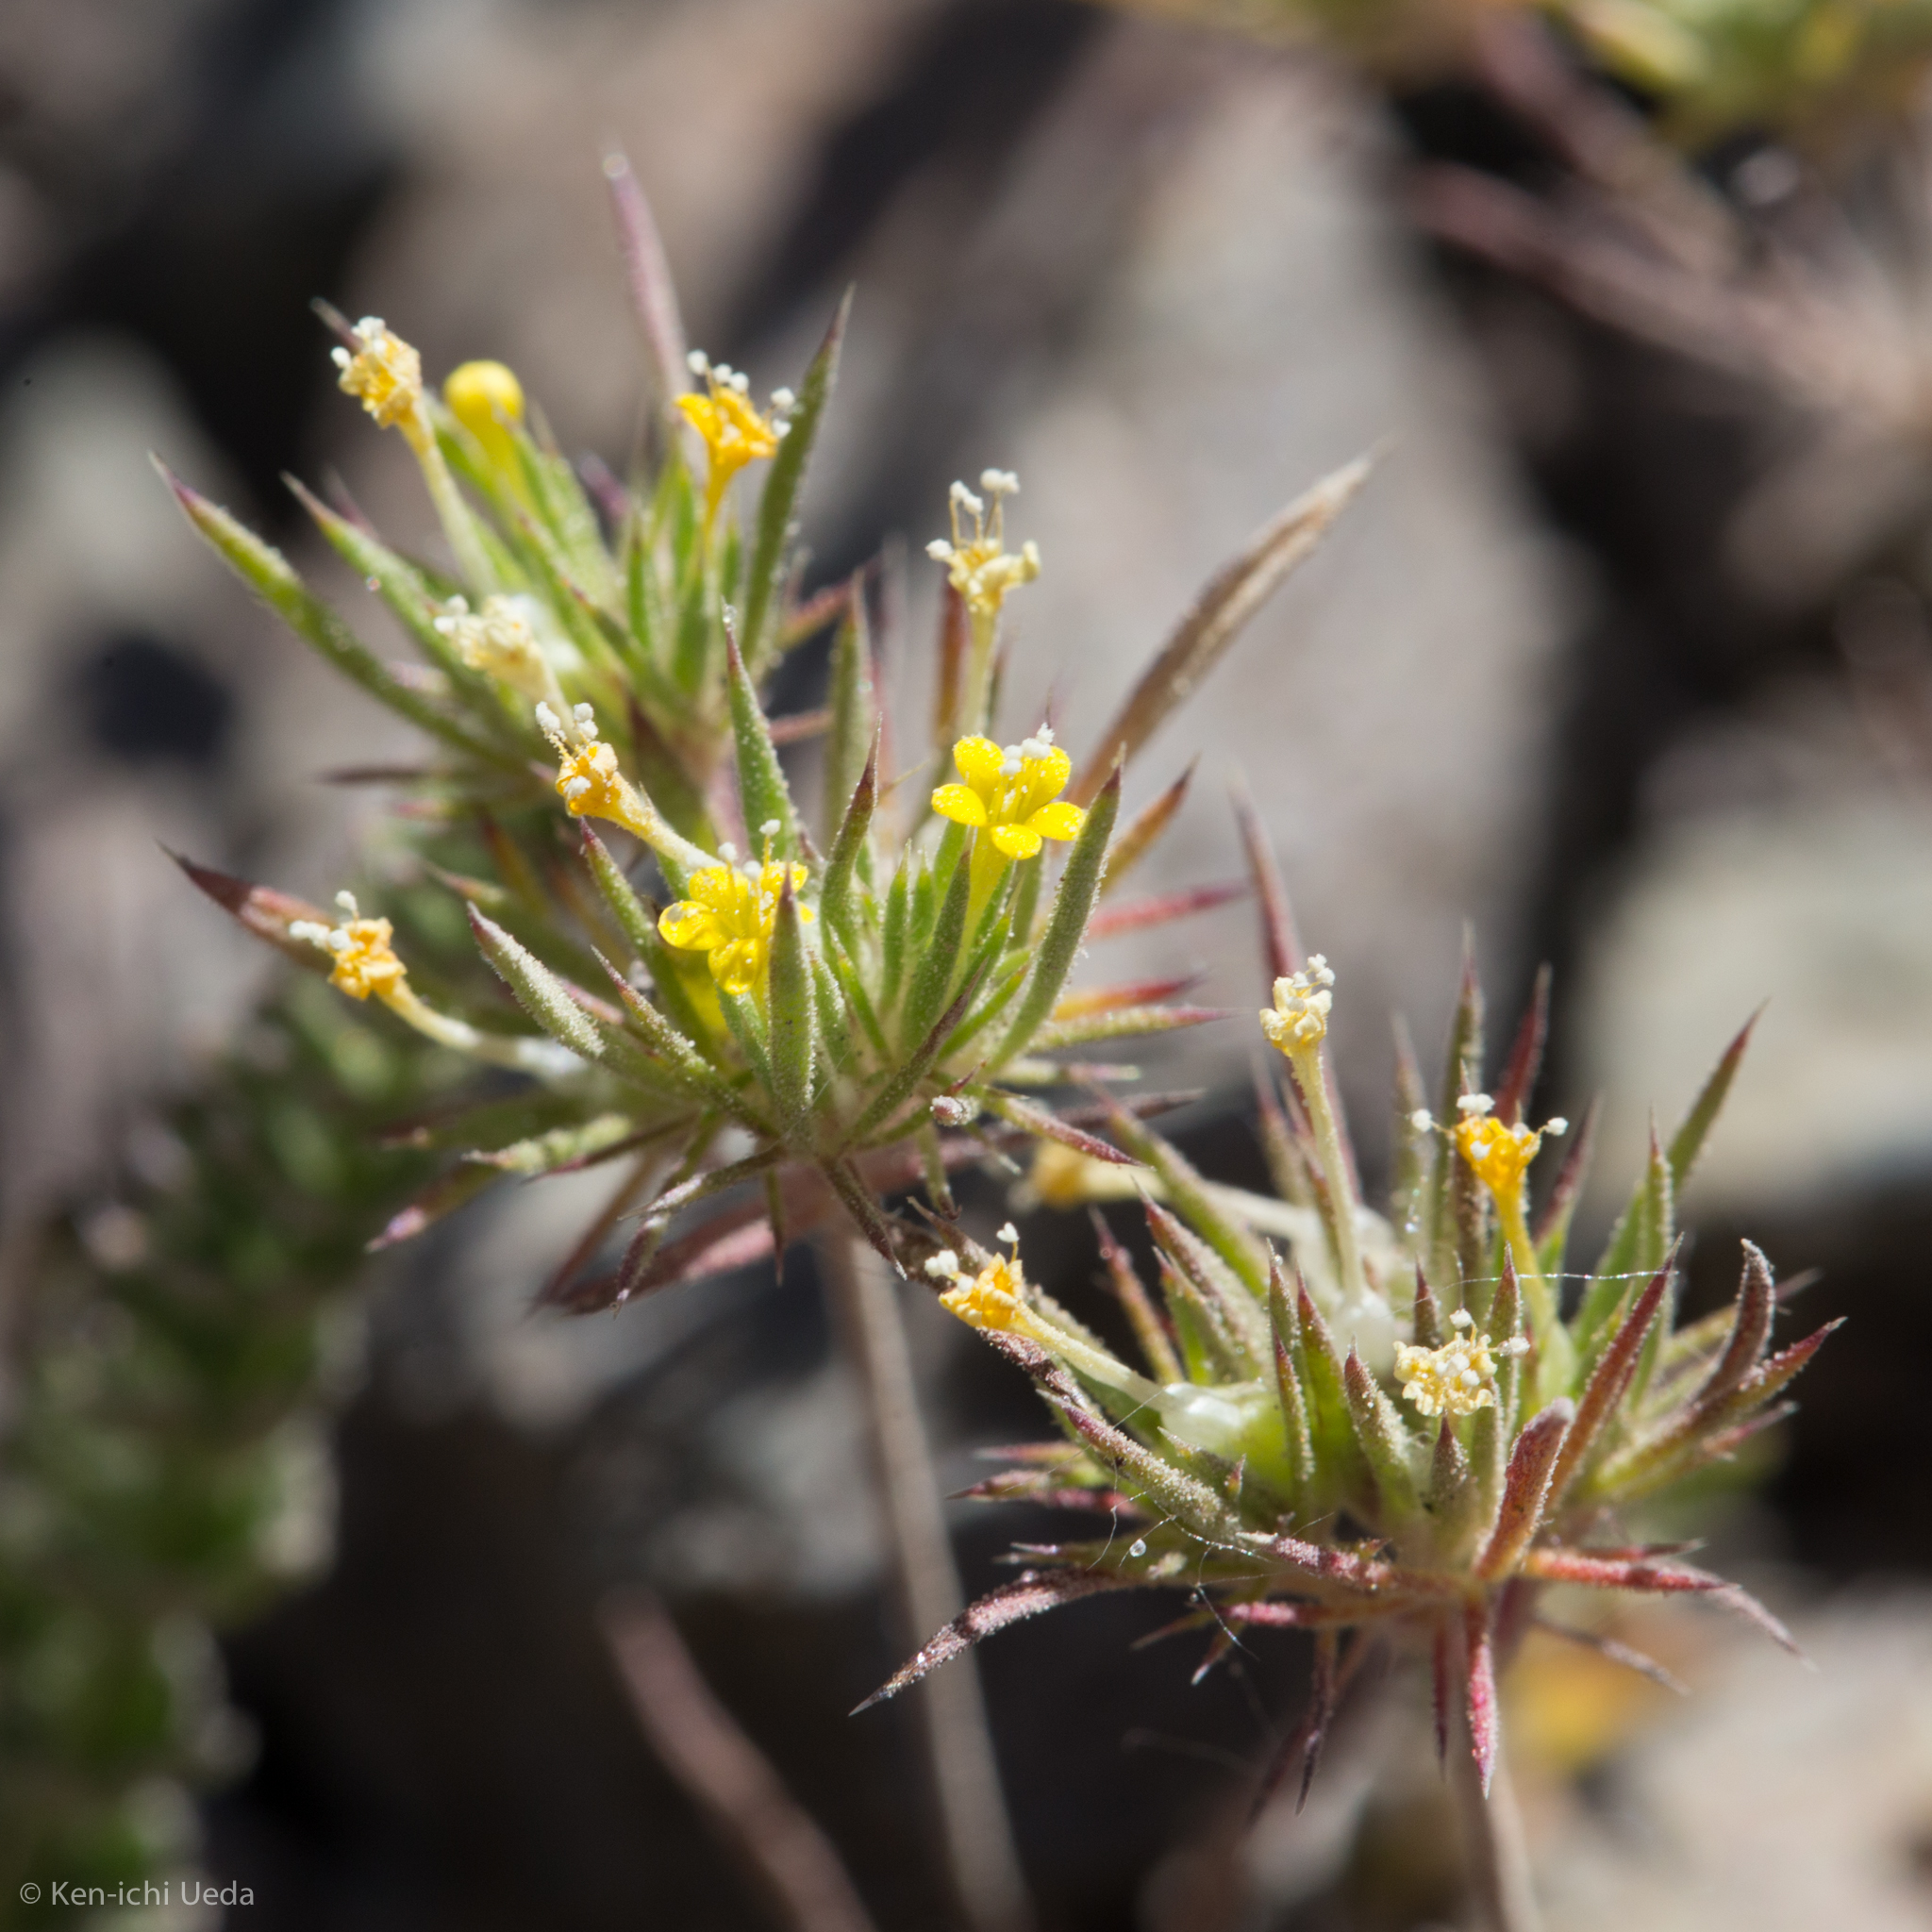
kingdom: Plantae
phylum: Tracheophyta
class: Magnoliopsida
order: Ericales
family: Polemoniaceae
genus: Navarretia
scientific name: Navarretia breweri
